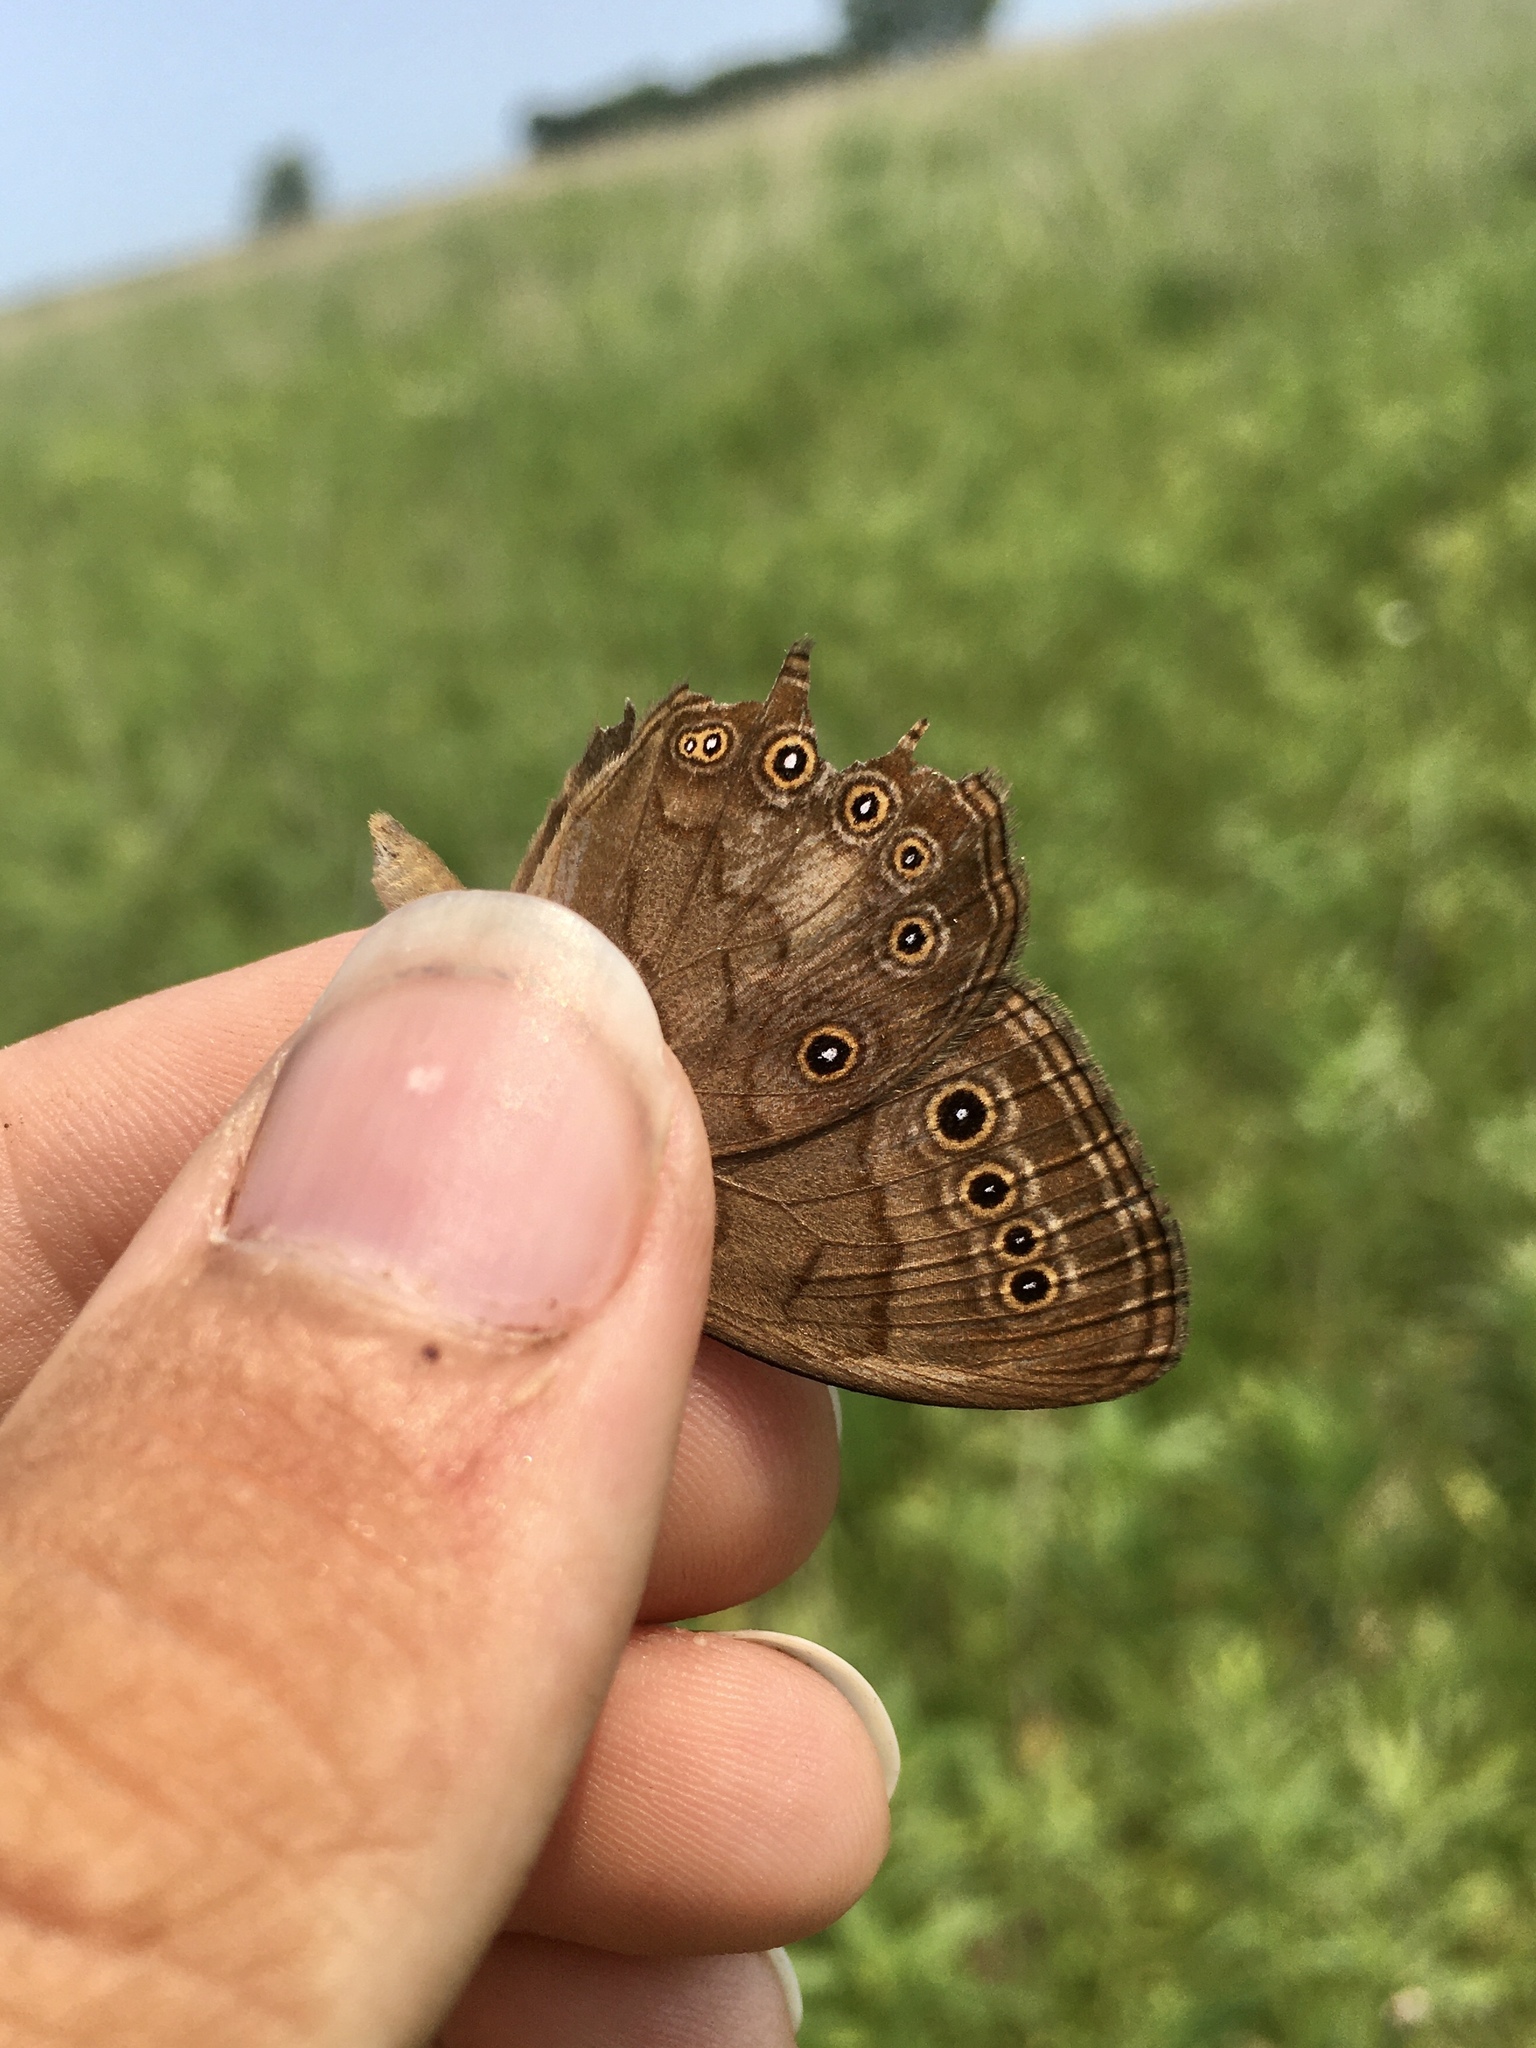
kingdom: Animalia
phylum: Arthropoda
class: Insecta
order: Lepidoptera
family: Nymphalidae
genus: Lethe
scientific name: Lethe eurydice
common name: Eyed brown
